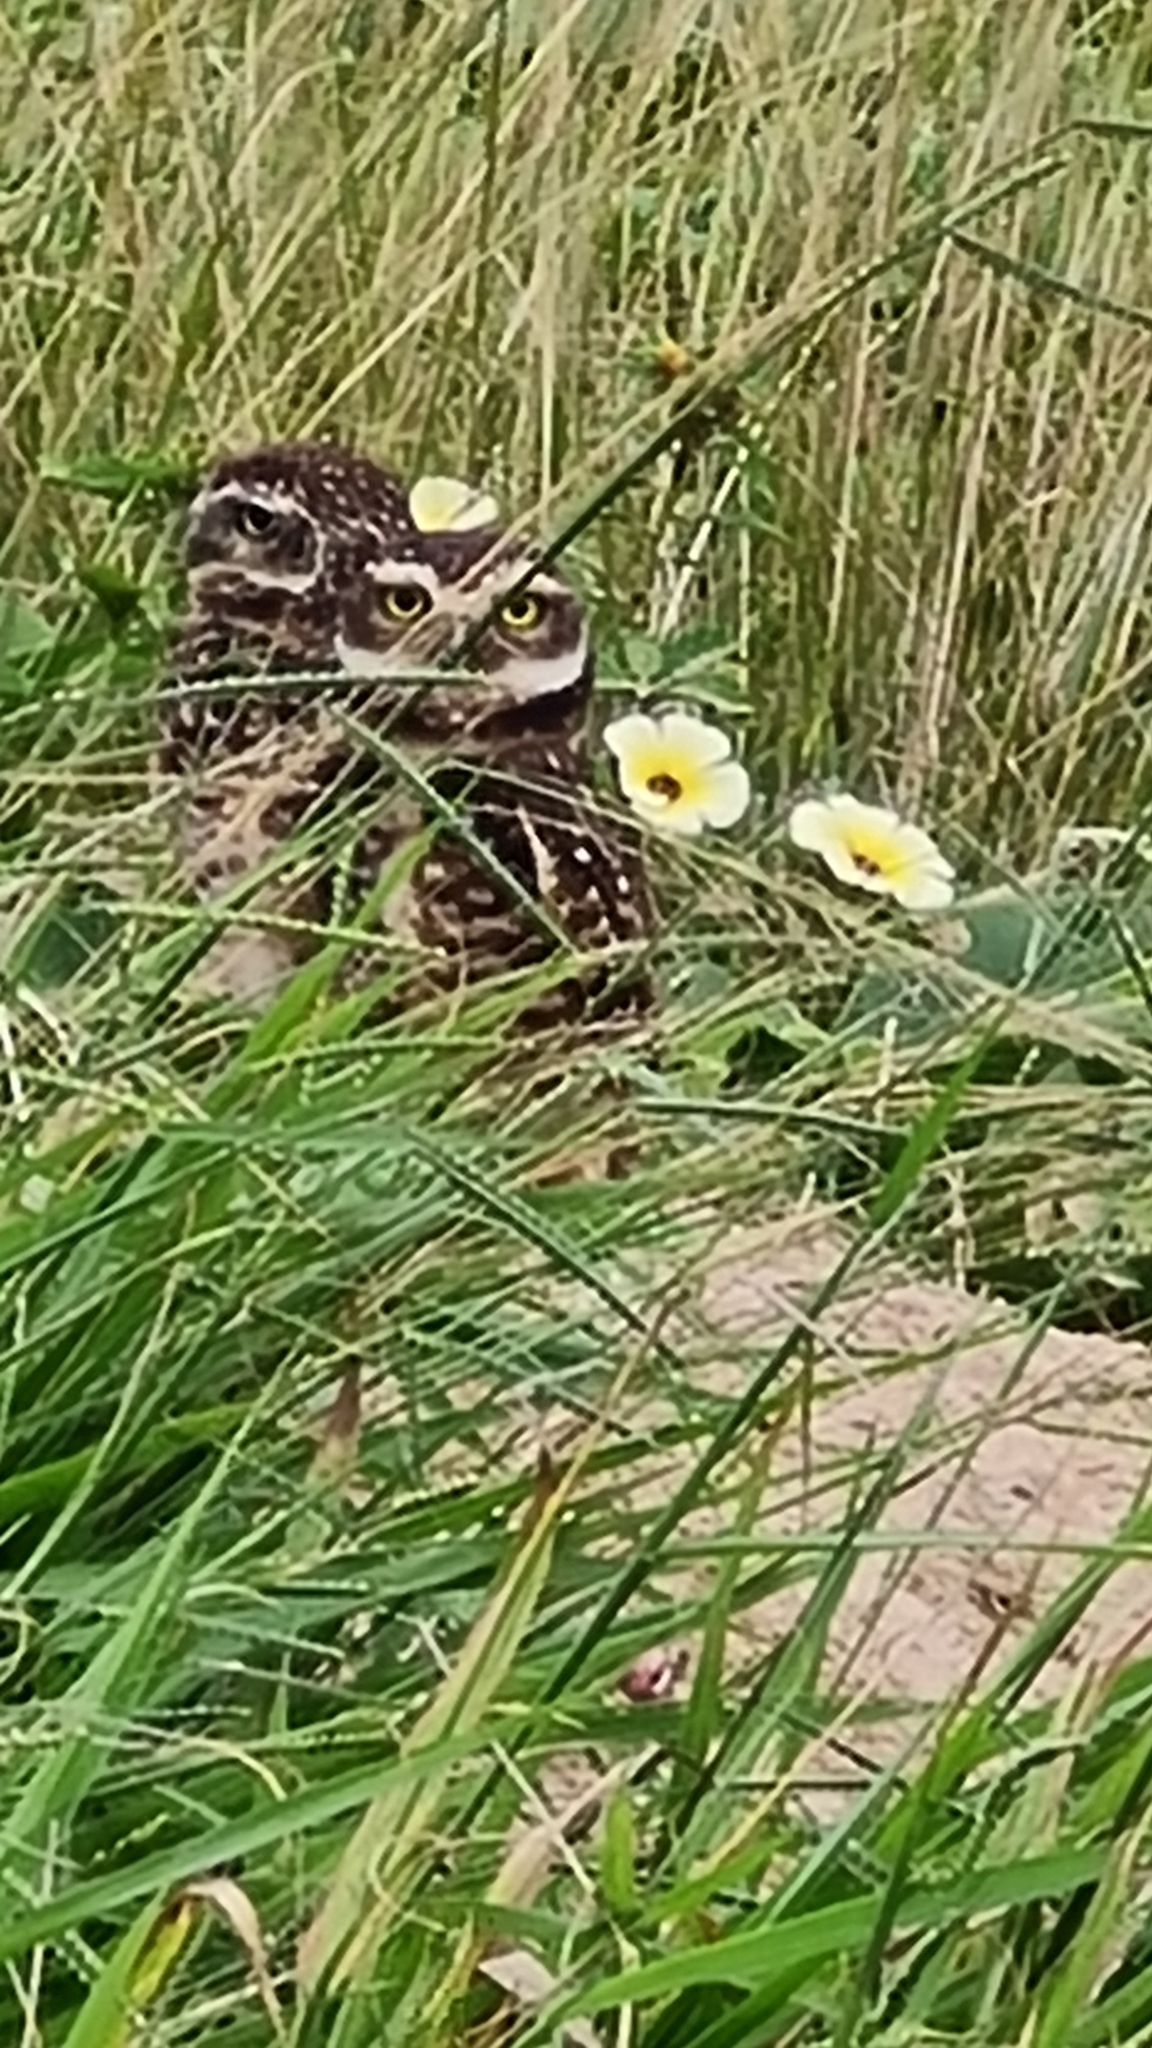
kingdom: Animalia
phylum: Chordata
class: Aves
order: Strigiformes
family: Strigidae
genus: Athene
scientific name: Athene cunicularia
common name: Burrowing owl
